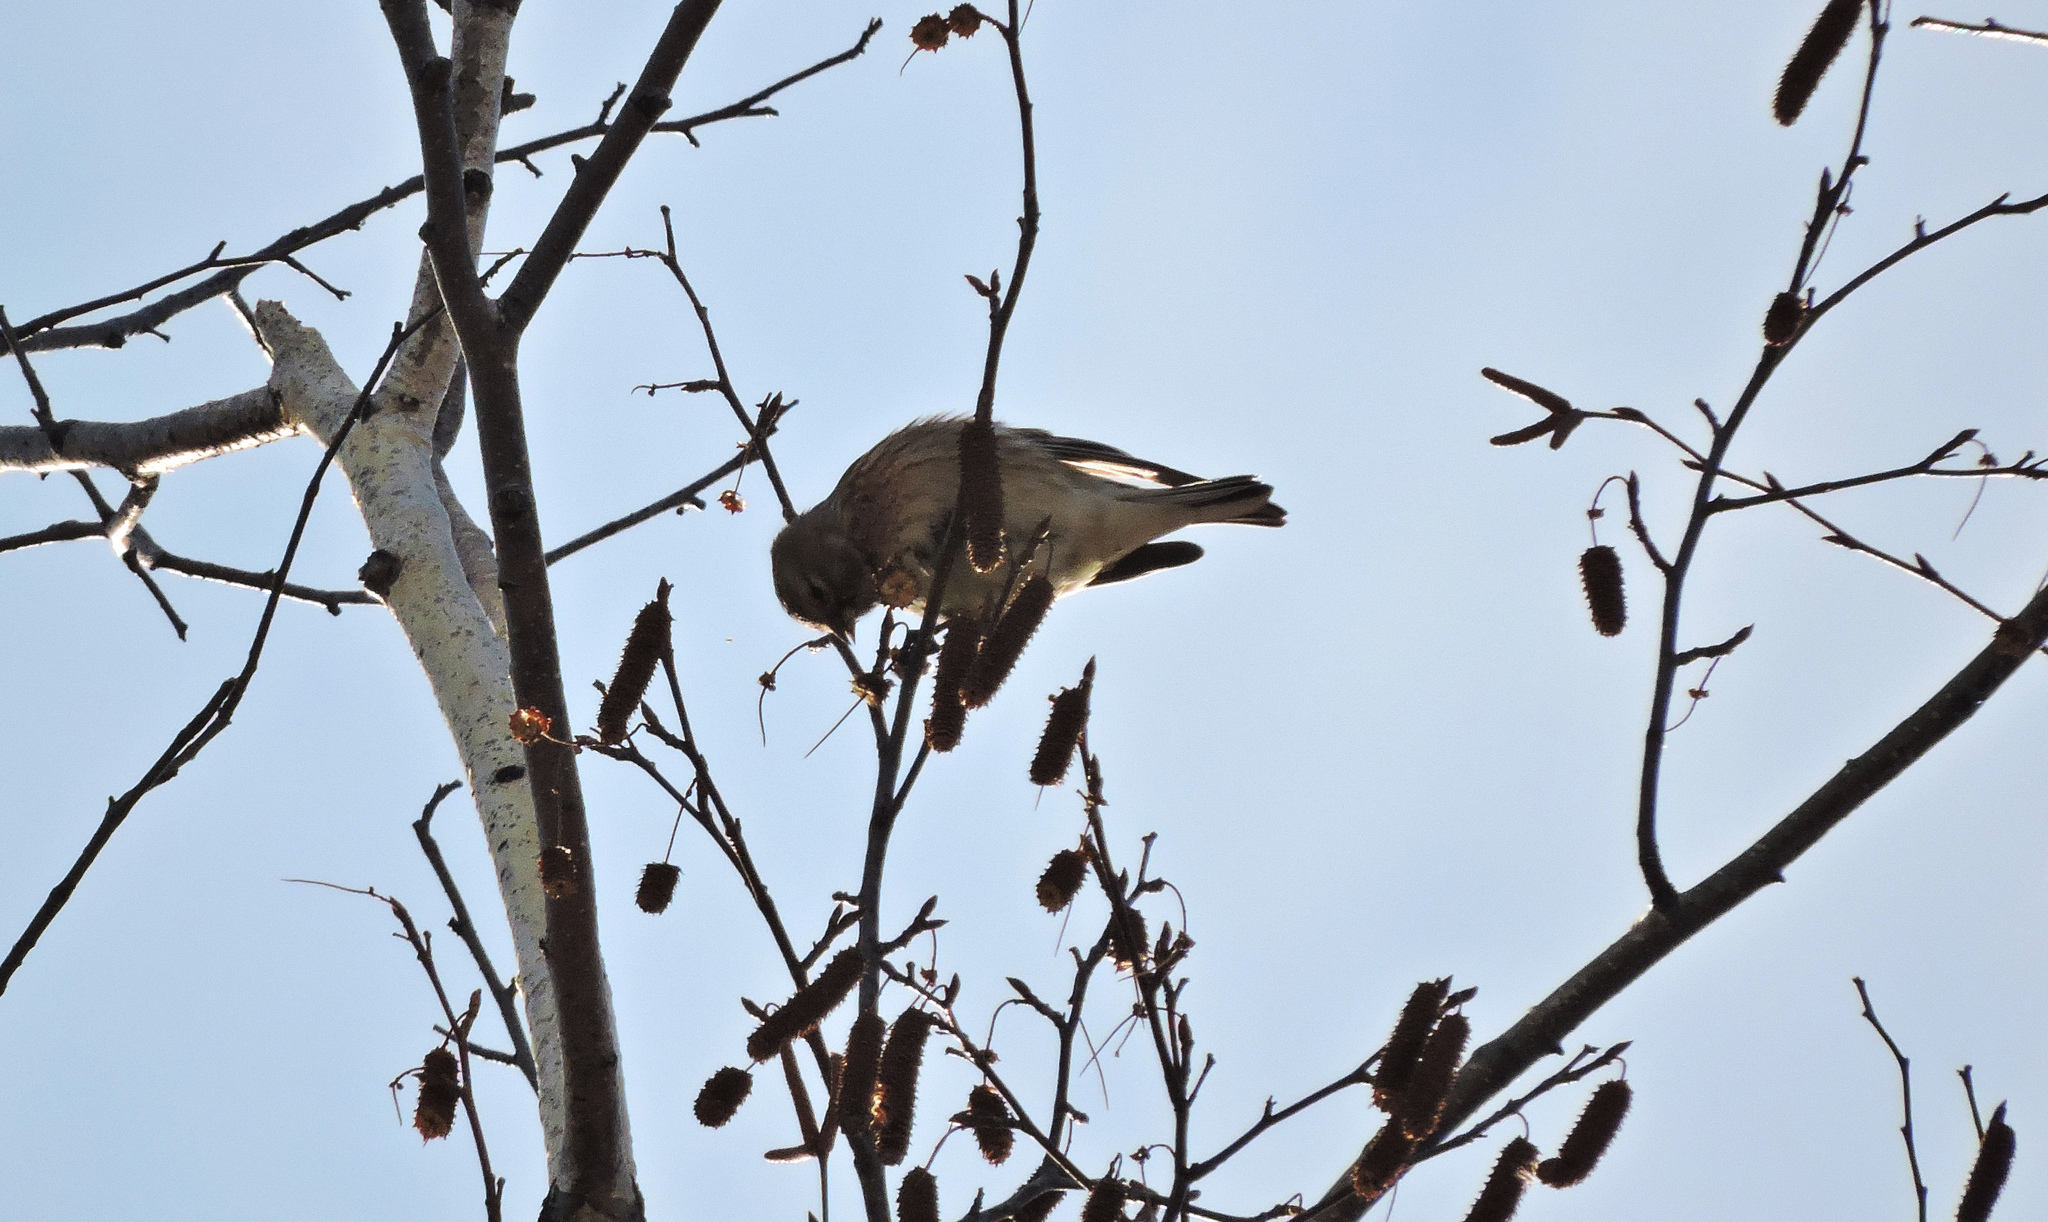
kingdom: Animalia
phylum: Chordata
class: Aves
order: Passeriformes
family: Fringillidae
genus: Linaria
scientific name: Linaria cannabina
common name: Common linnet
